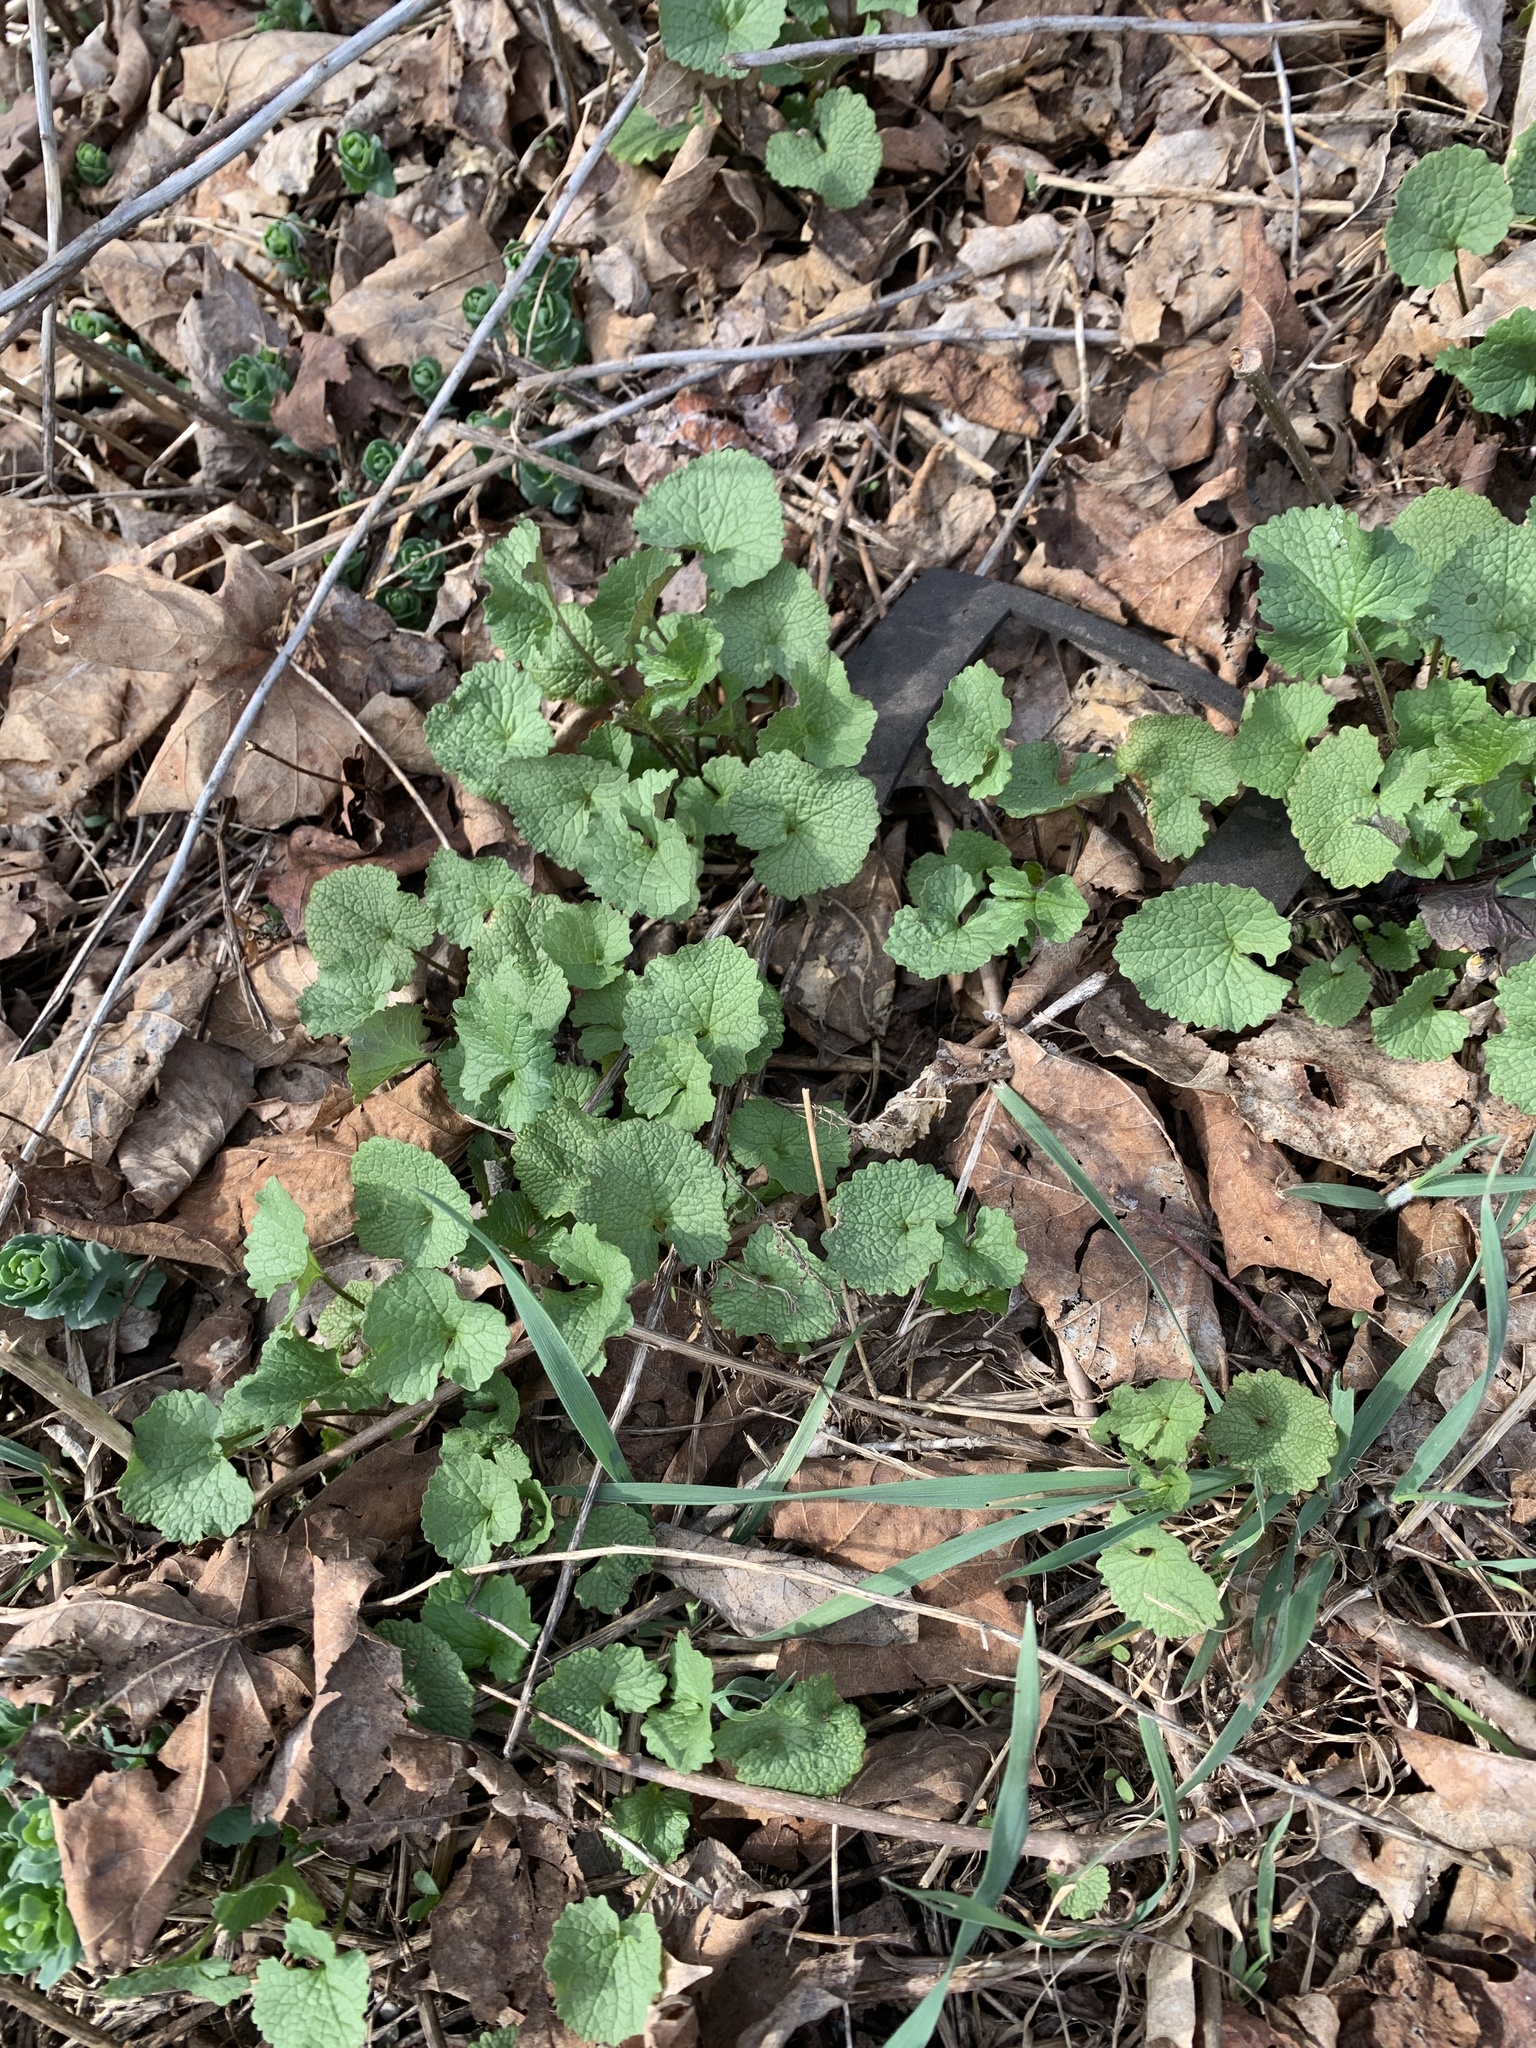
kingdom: Plantae
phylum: Tracheophyta
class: Magnoliopsida
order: Brassicales
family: Brassicaceae
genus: Alliaria
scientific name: Alliaria petiolata
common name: Garlic mustard
